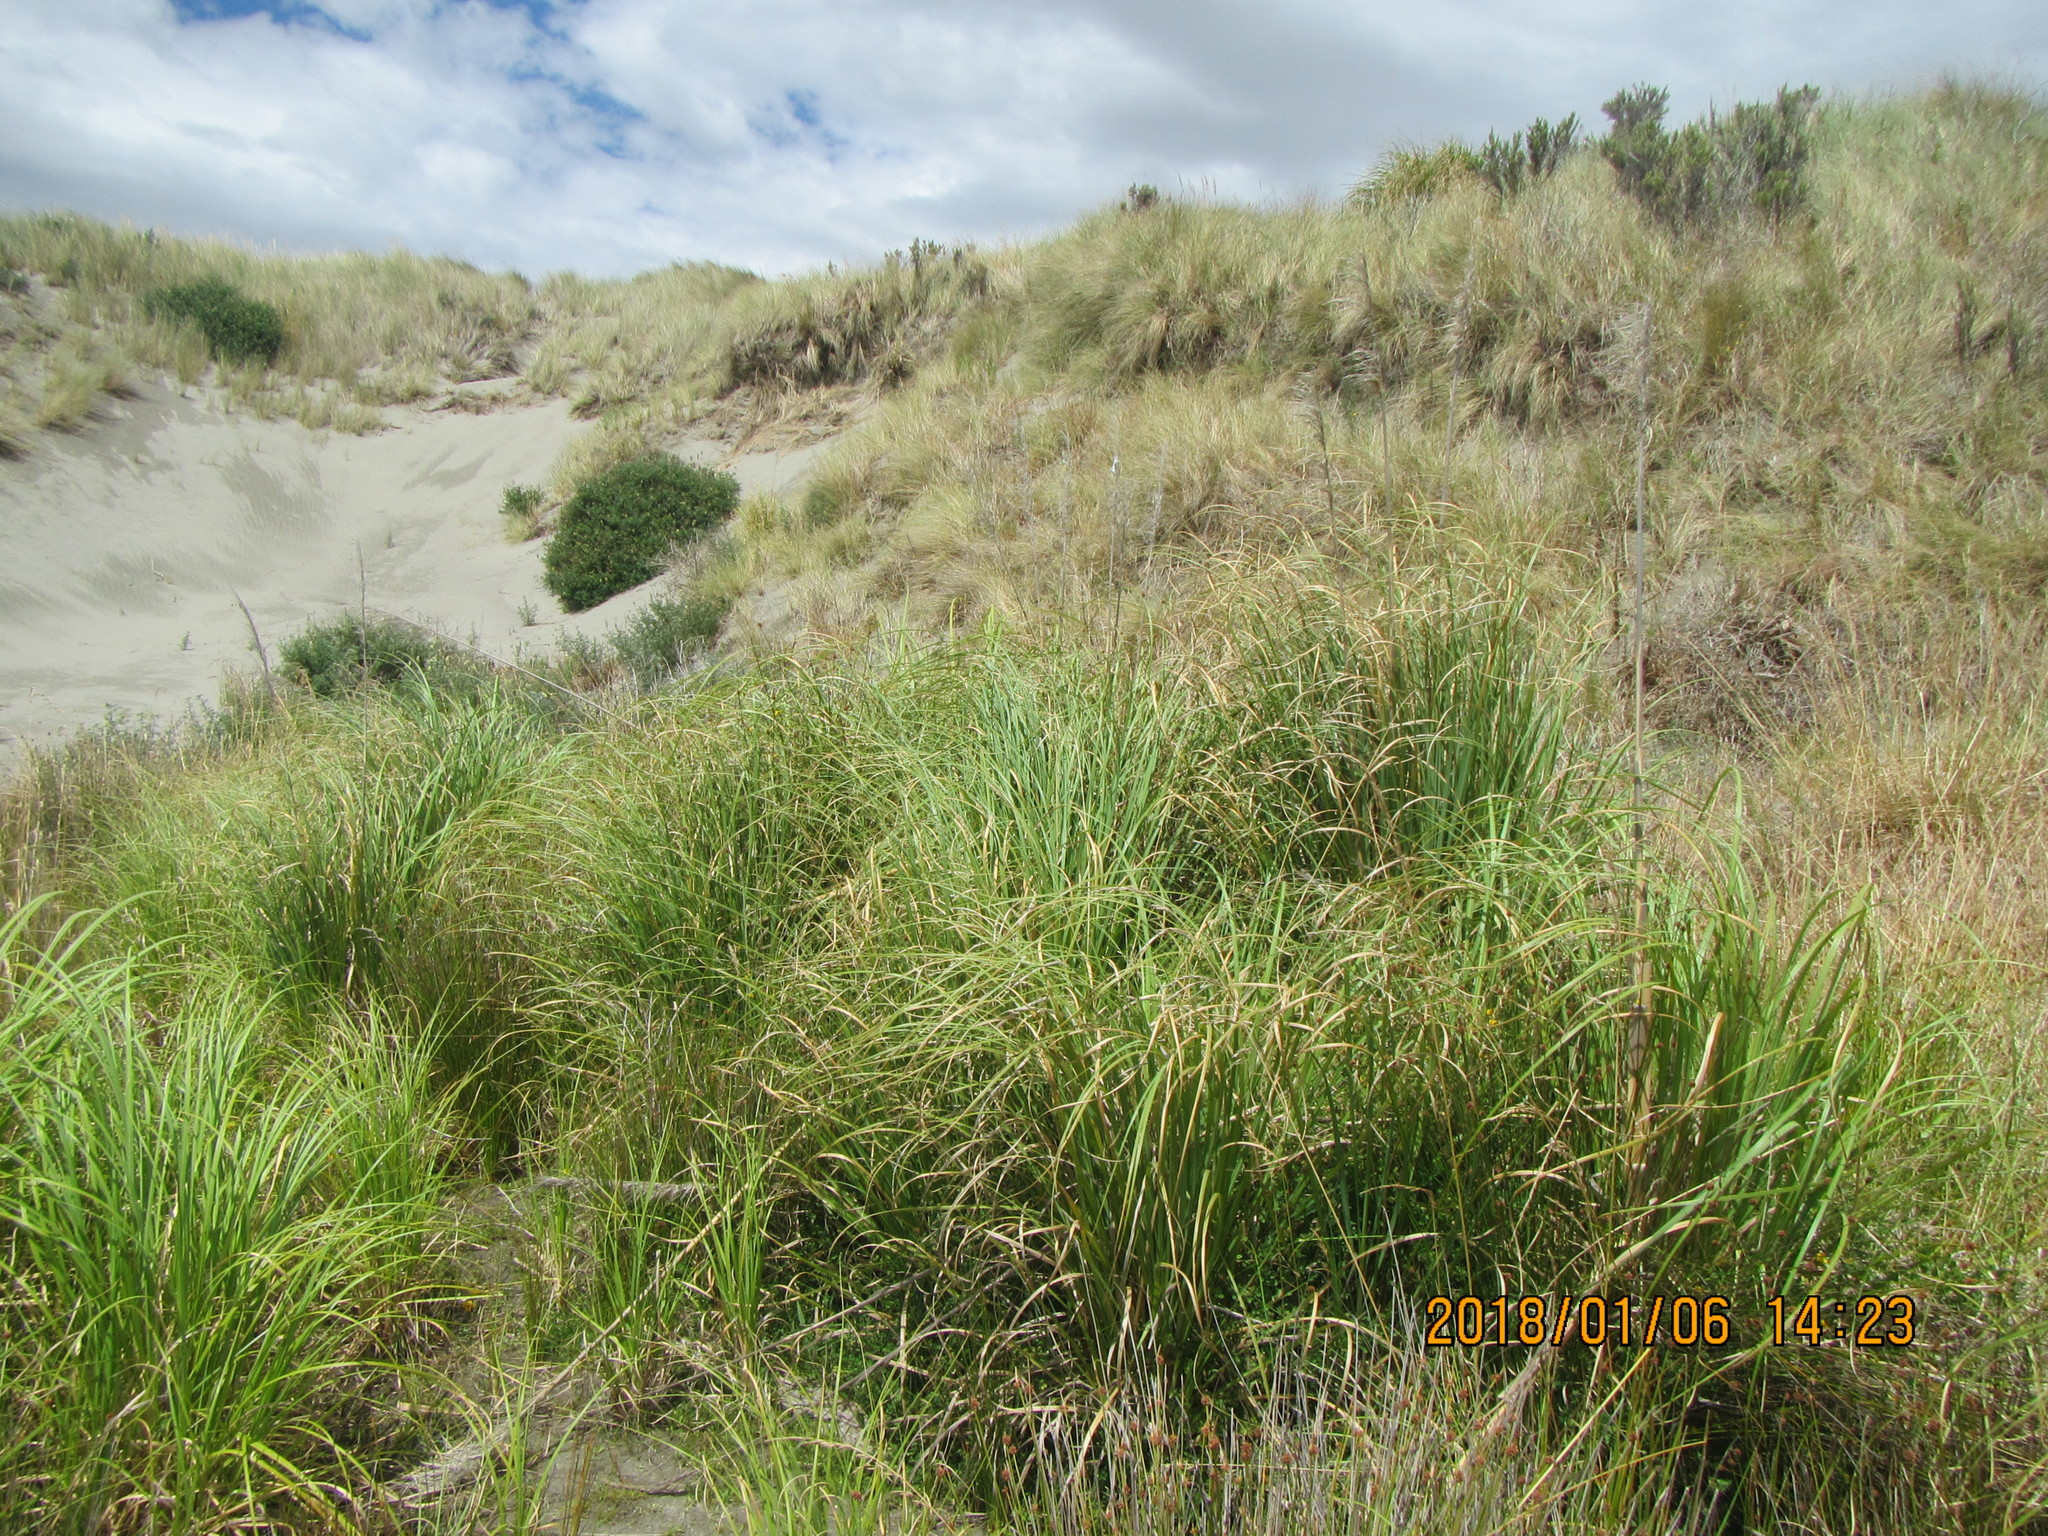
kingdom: Plantae
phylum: Tracheophyta
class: Liliopsida
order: Poales
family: Poaceae
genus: Cortaderia
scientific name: Cortaderia selloana
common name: Uruguayan pampas grass
